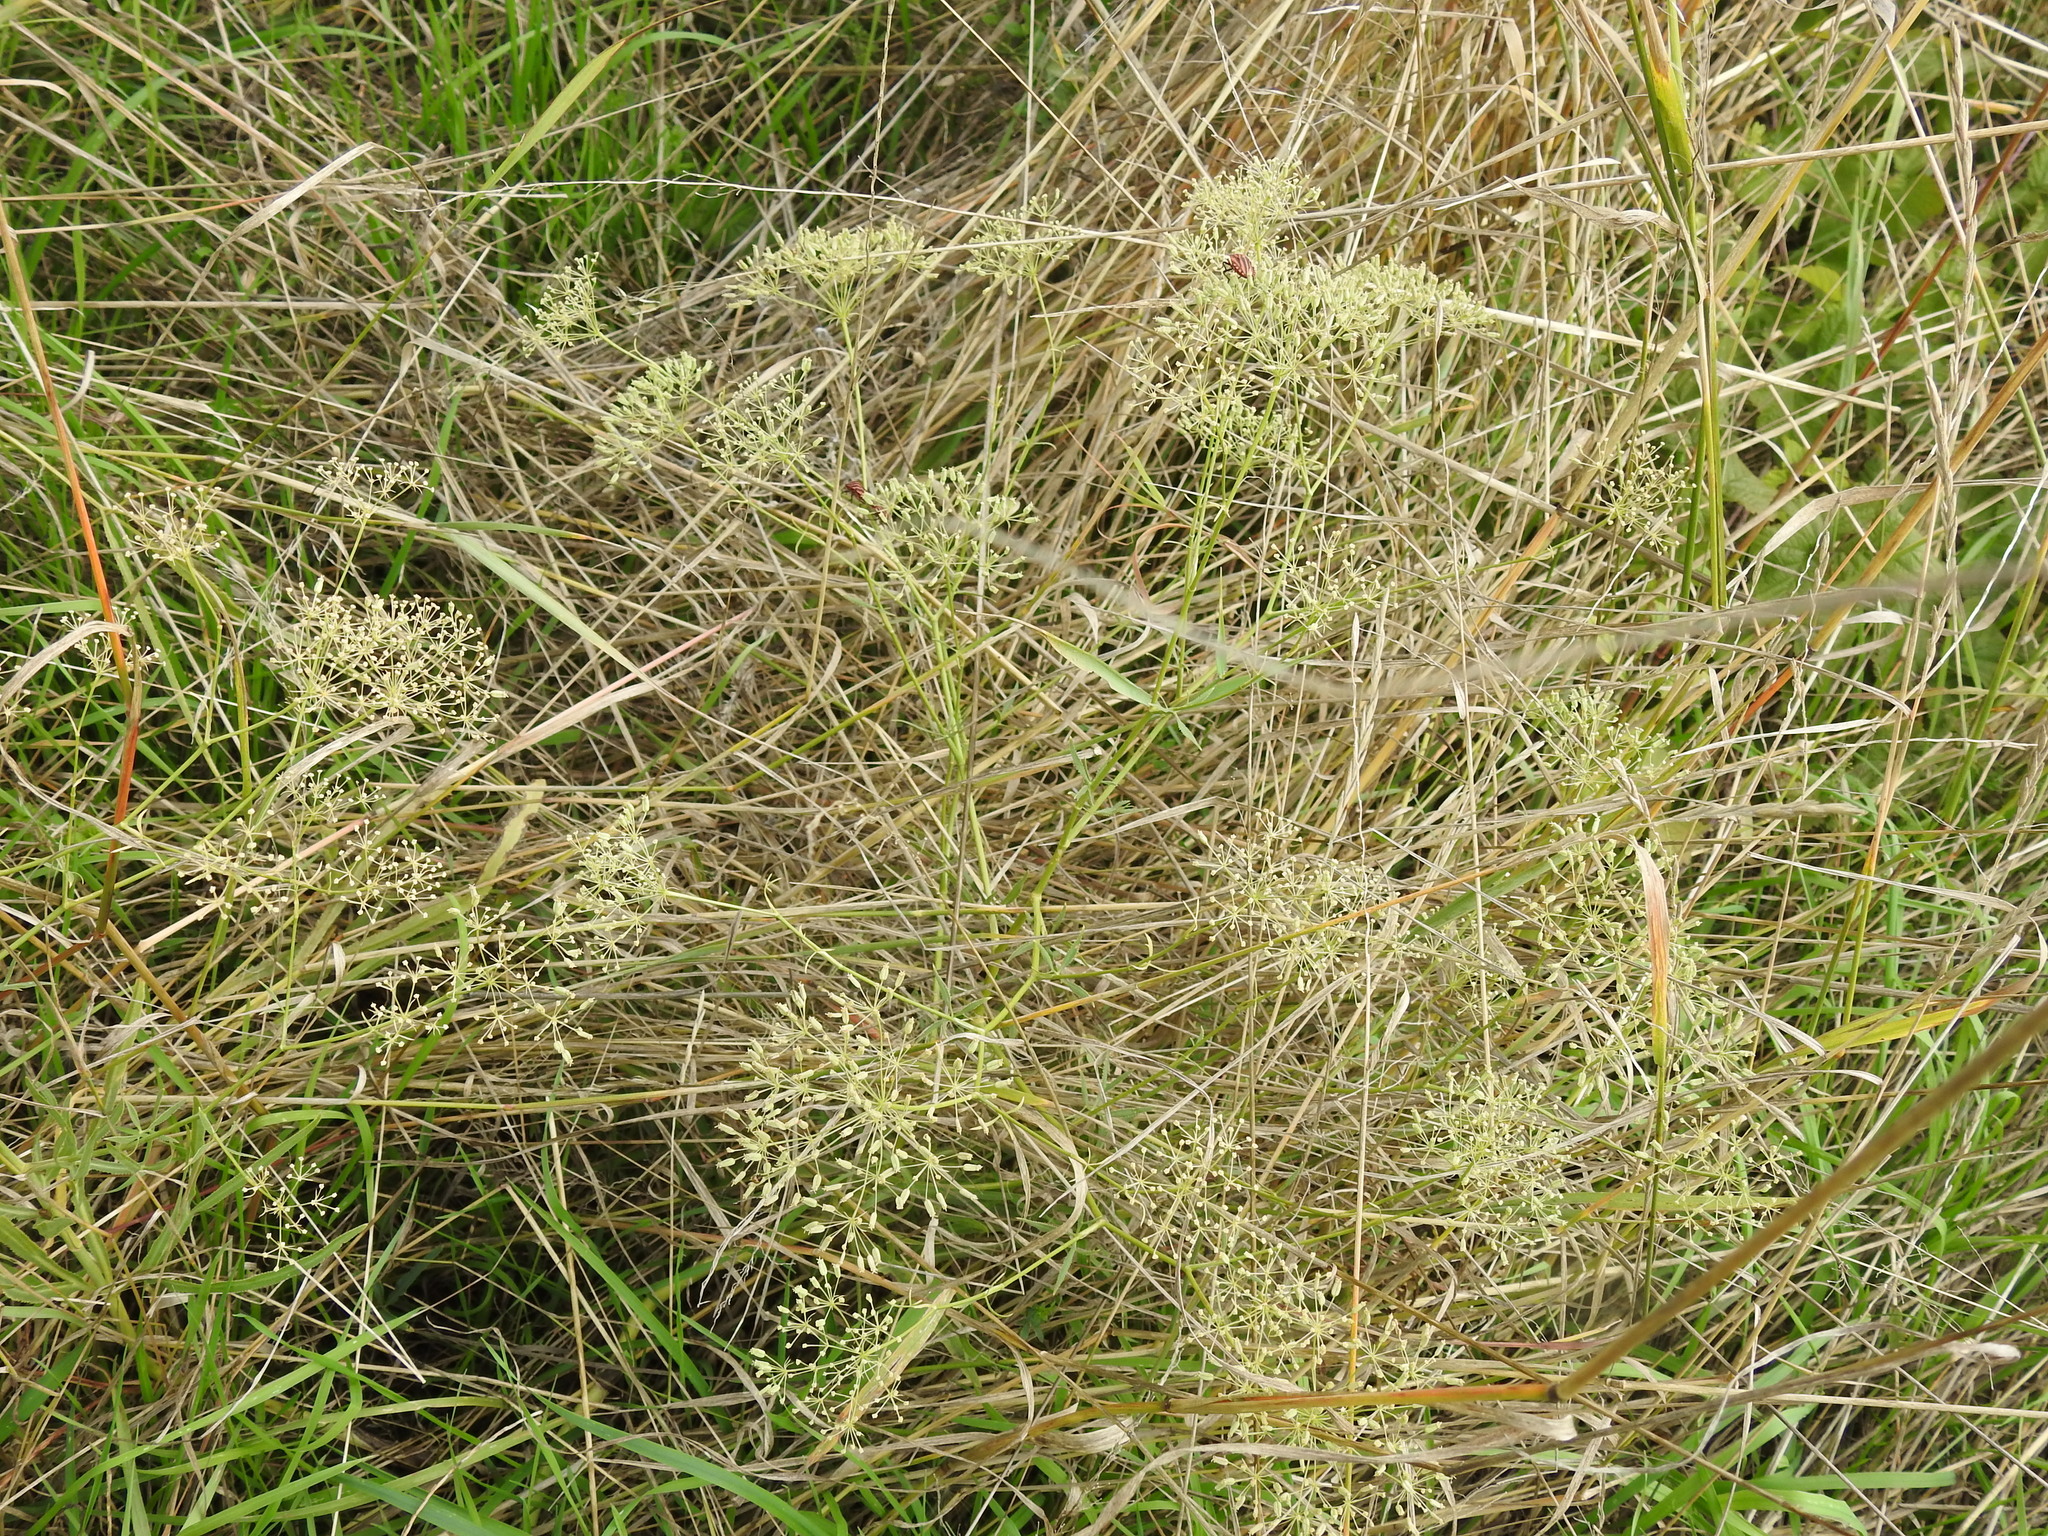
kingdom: Plantae
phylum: Tracheophyta
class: Magnoliopsida
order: Apiales
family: Apiaceae
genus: Falcaria
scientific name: Falcaria vulgaris
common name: Longleaf
